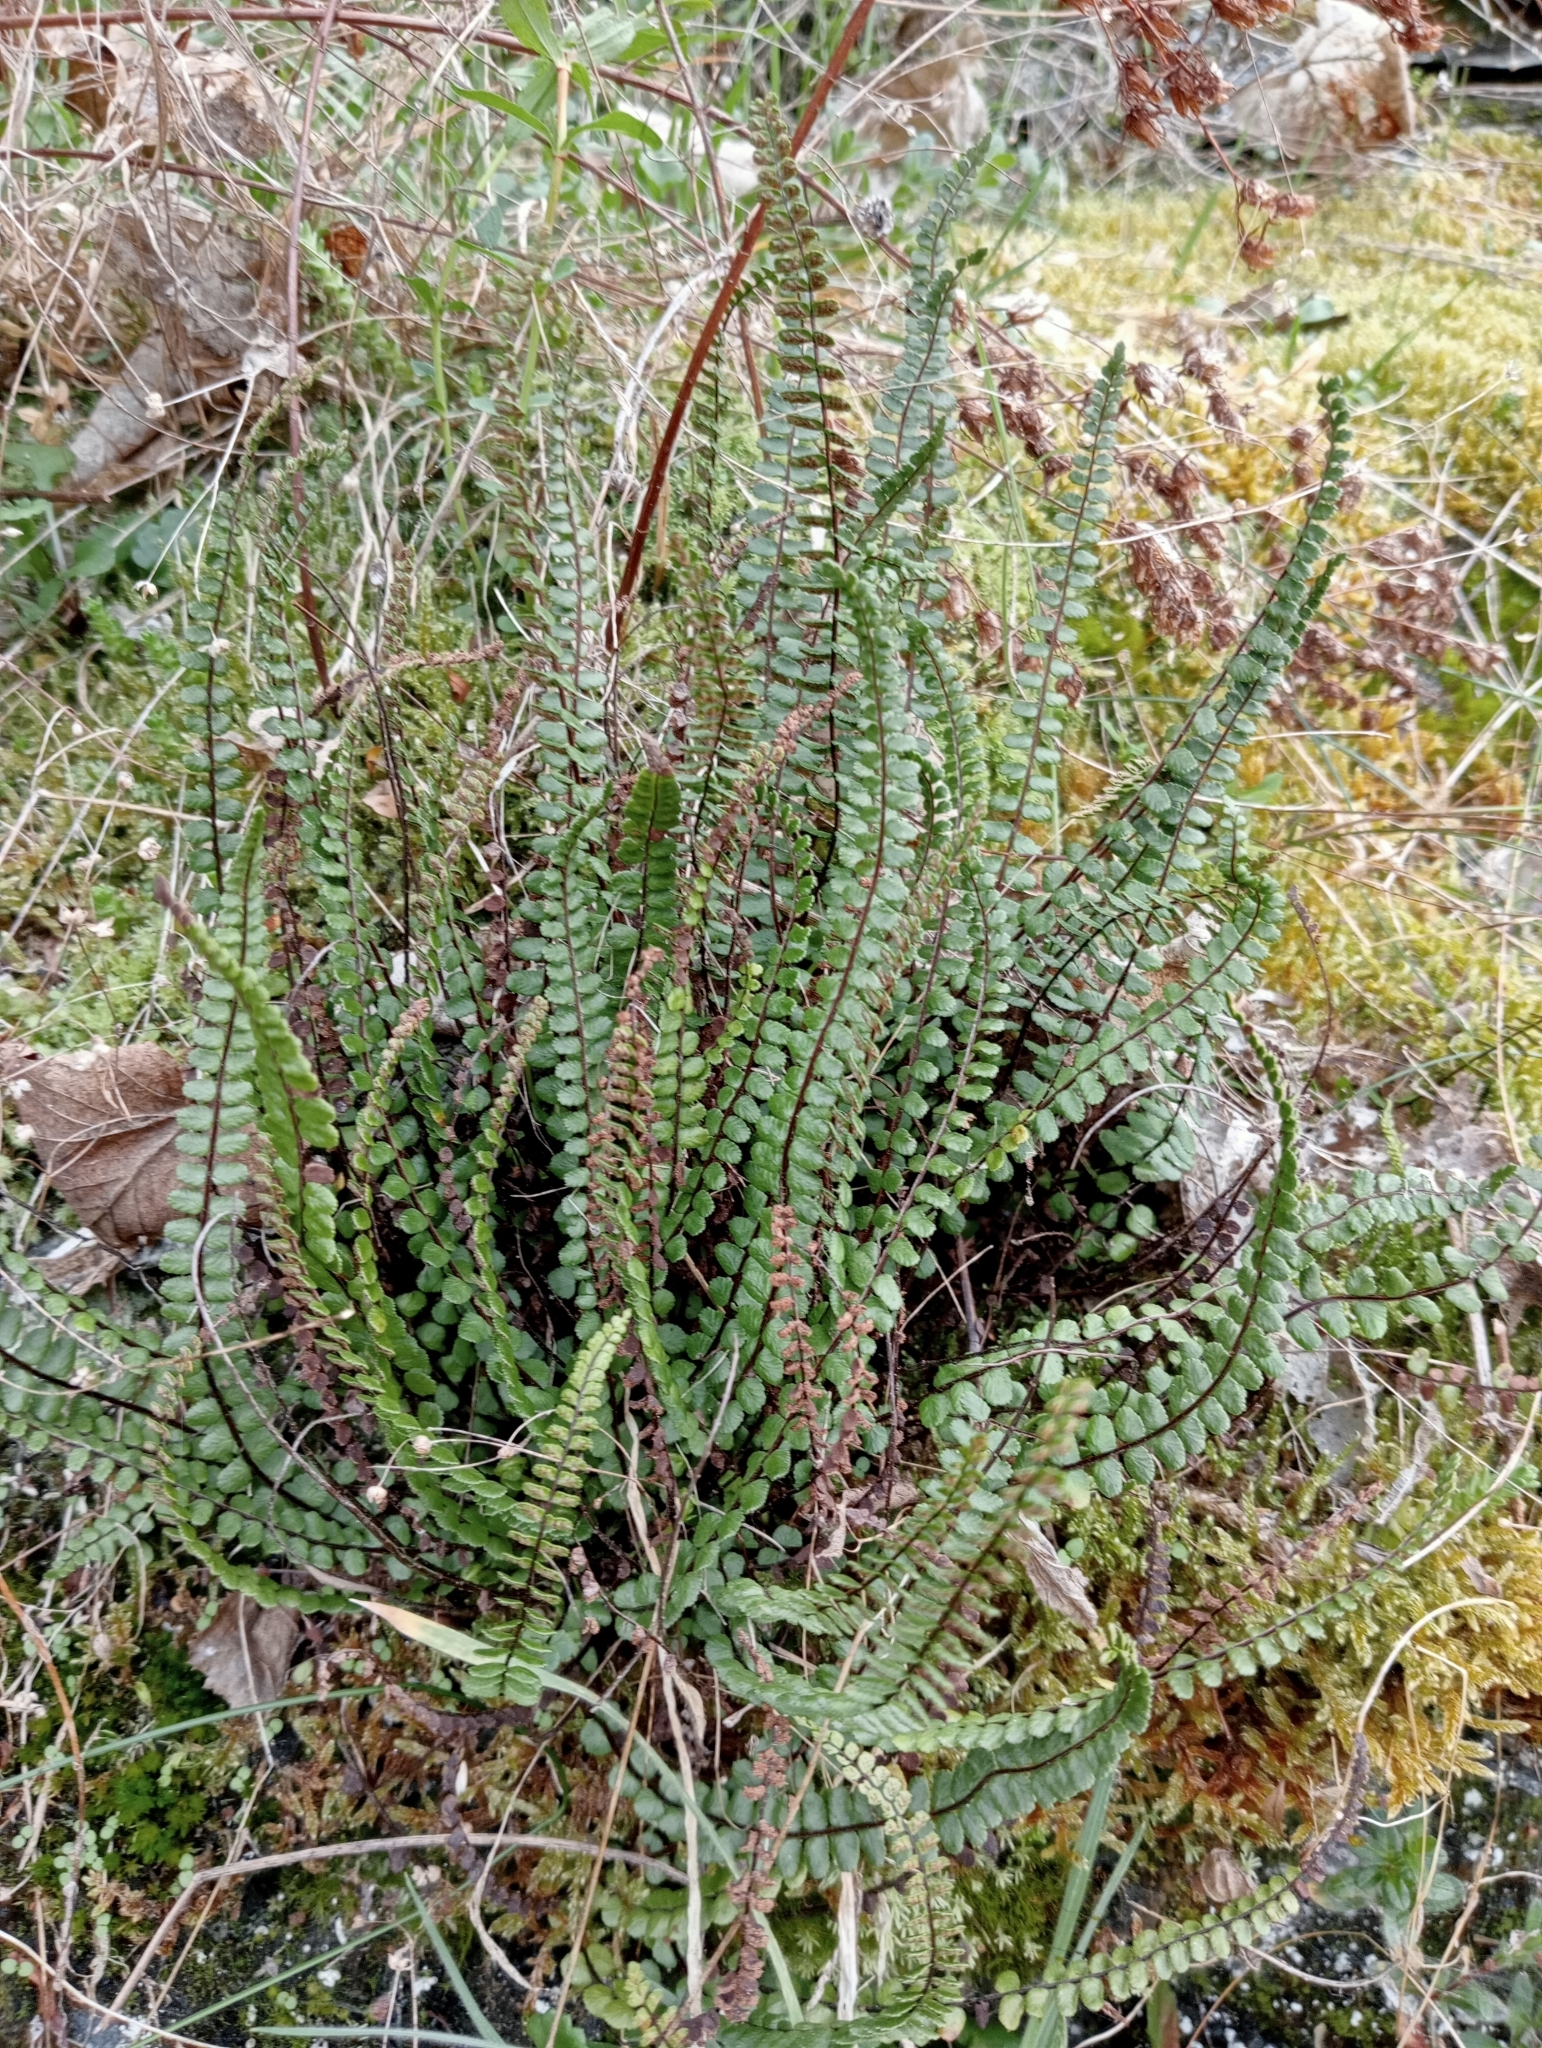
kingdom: Plantae
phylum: Tracheophyta
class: Polypodiopsida
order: Polypodiales
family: Aspleniaceae
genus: Asplenium
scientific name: Asplenium trichomanes
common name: Maidenhair spleenwort
